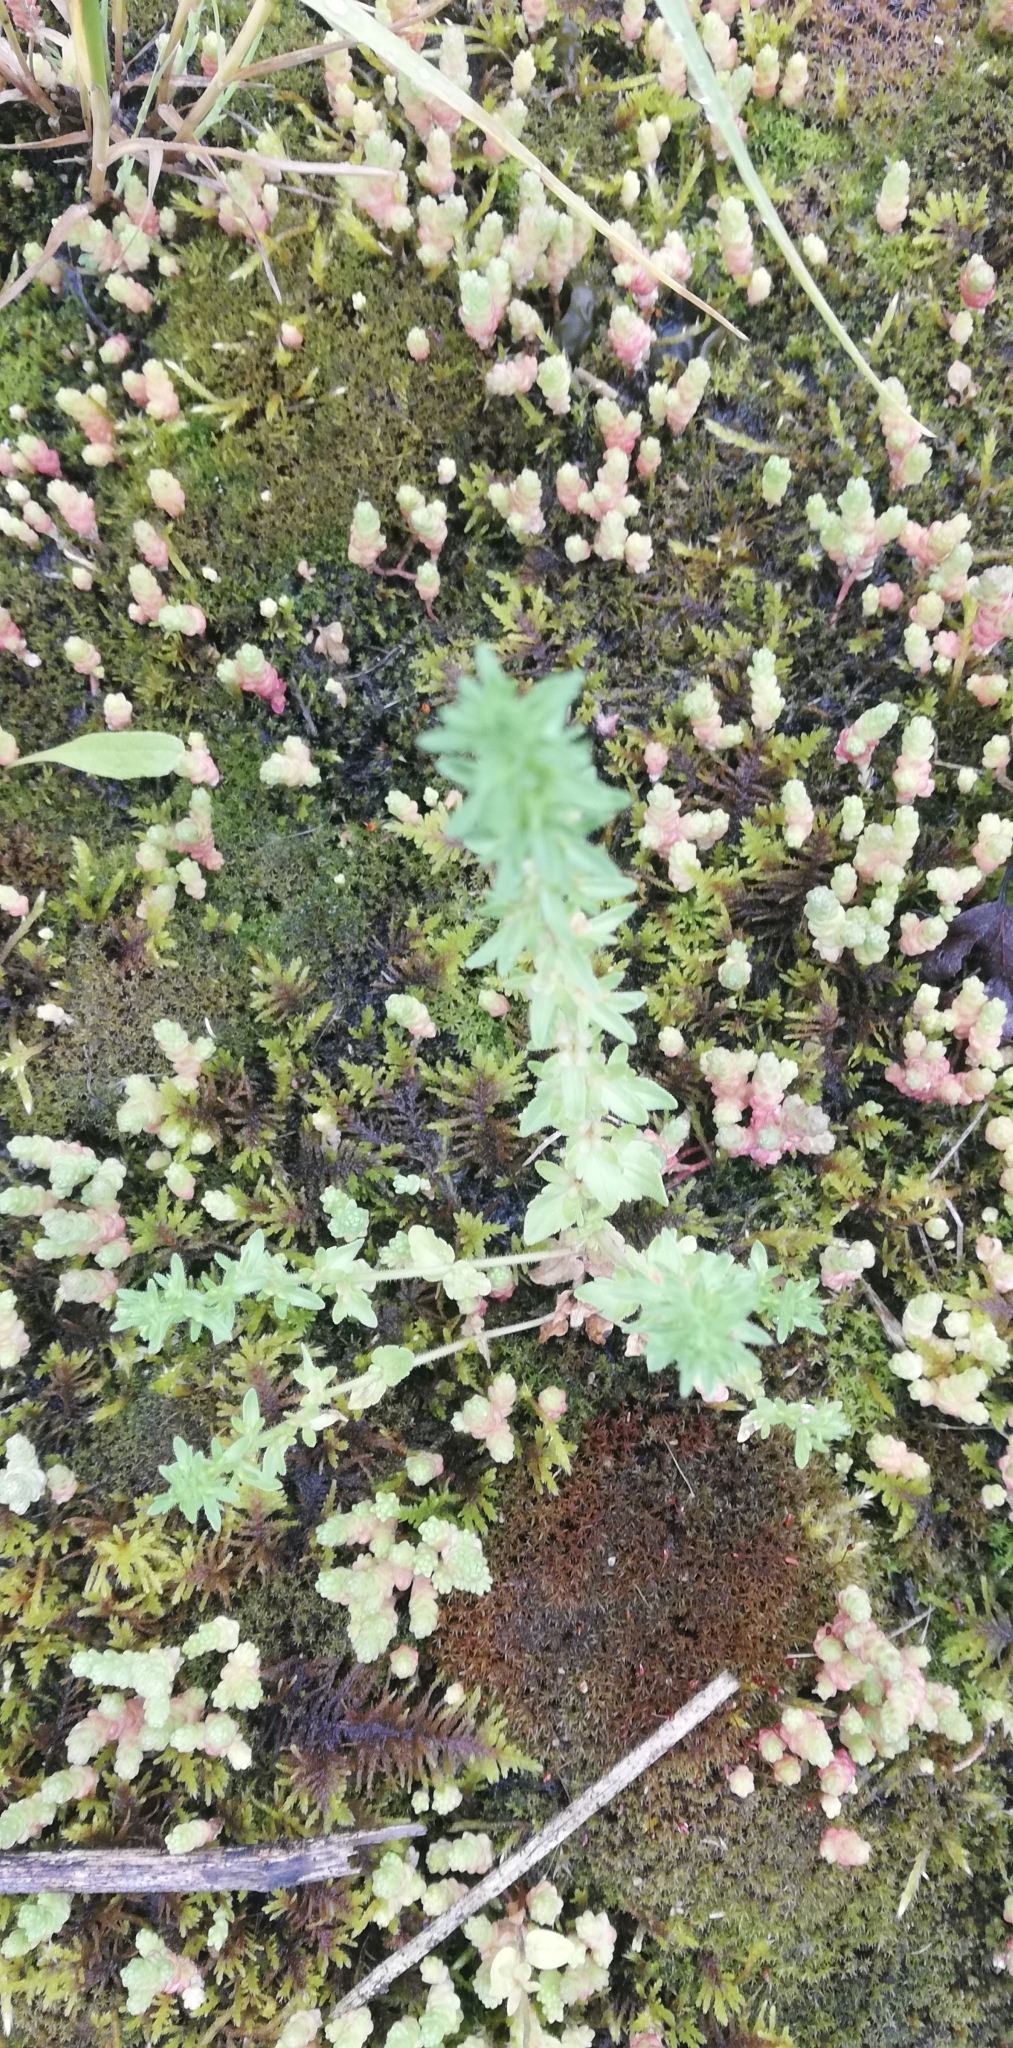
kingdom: Plantae
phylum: Tracheophyta
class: Magnoliopsida
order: Lamiales
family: Plantaginaceae
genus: Veronica
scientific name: Veronica arvensis
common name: Corn speedwell
